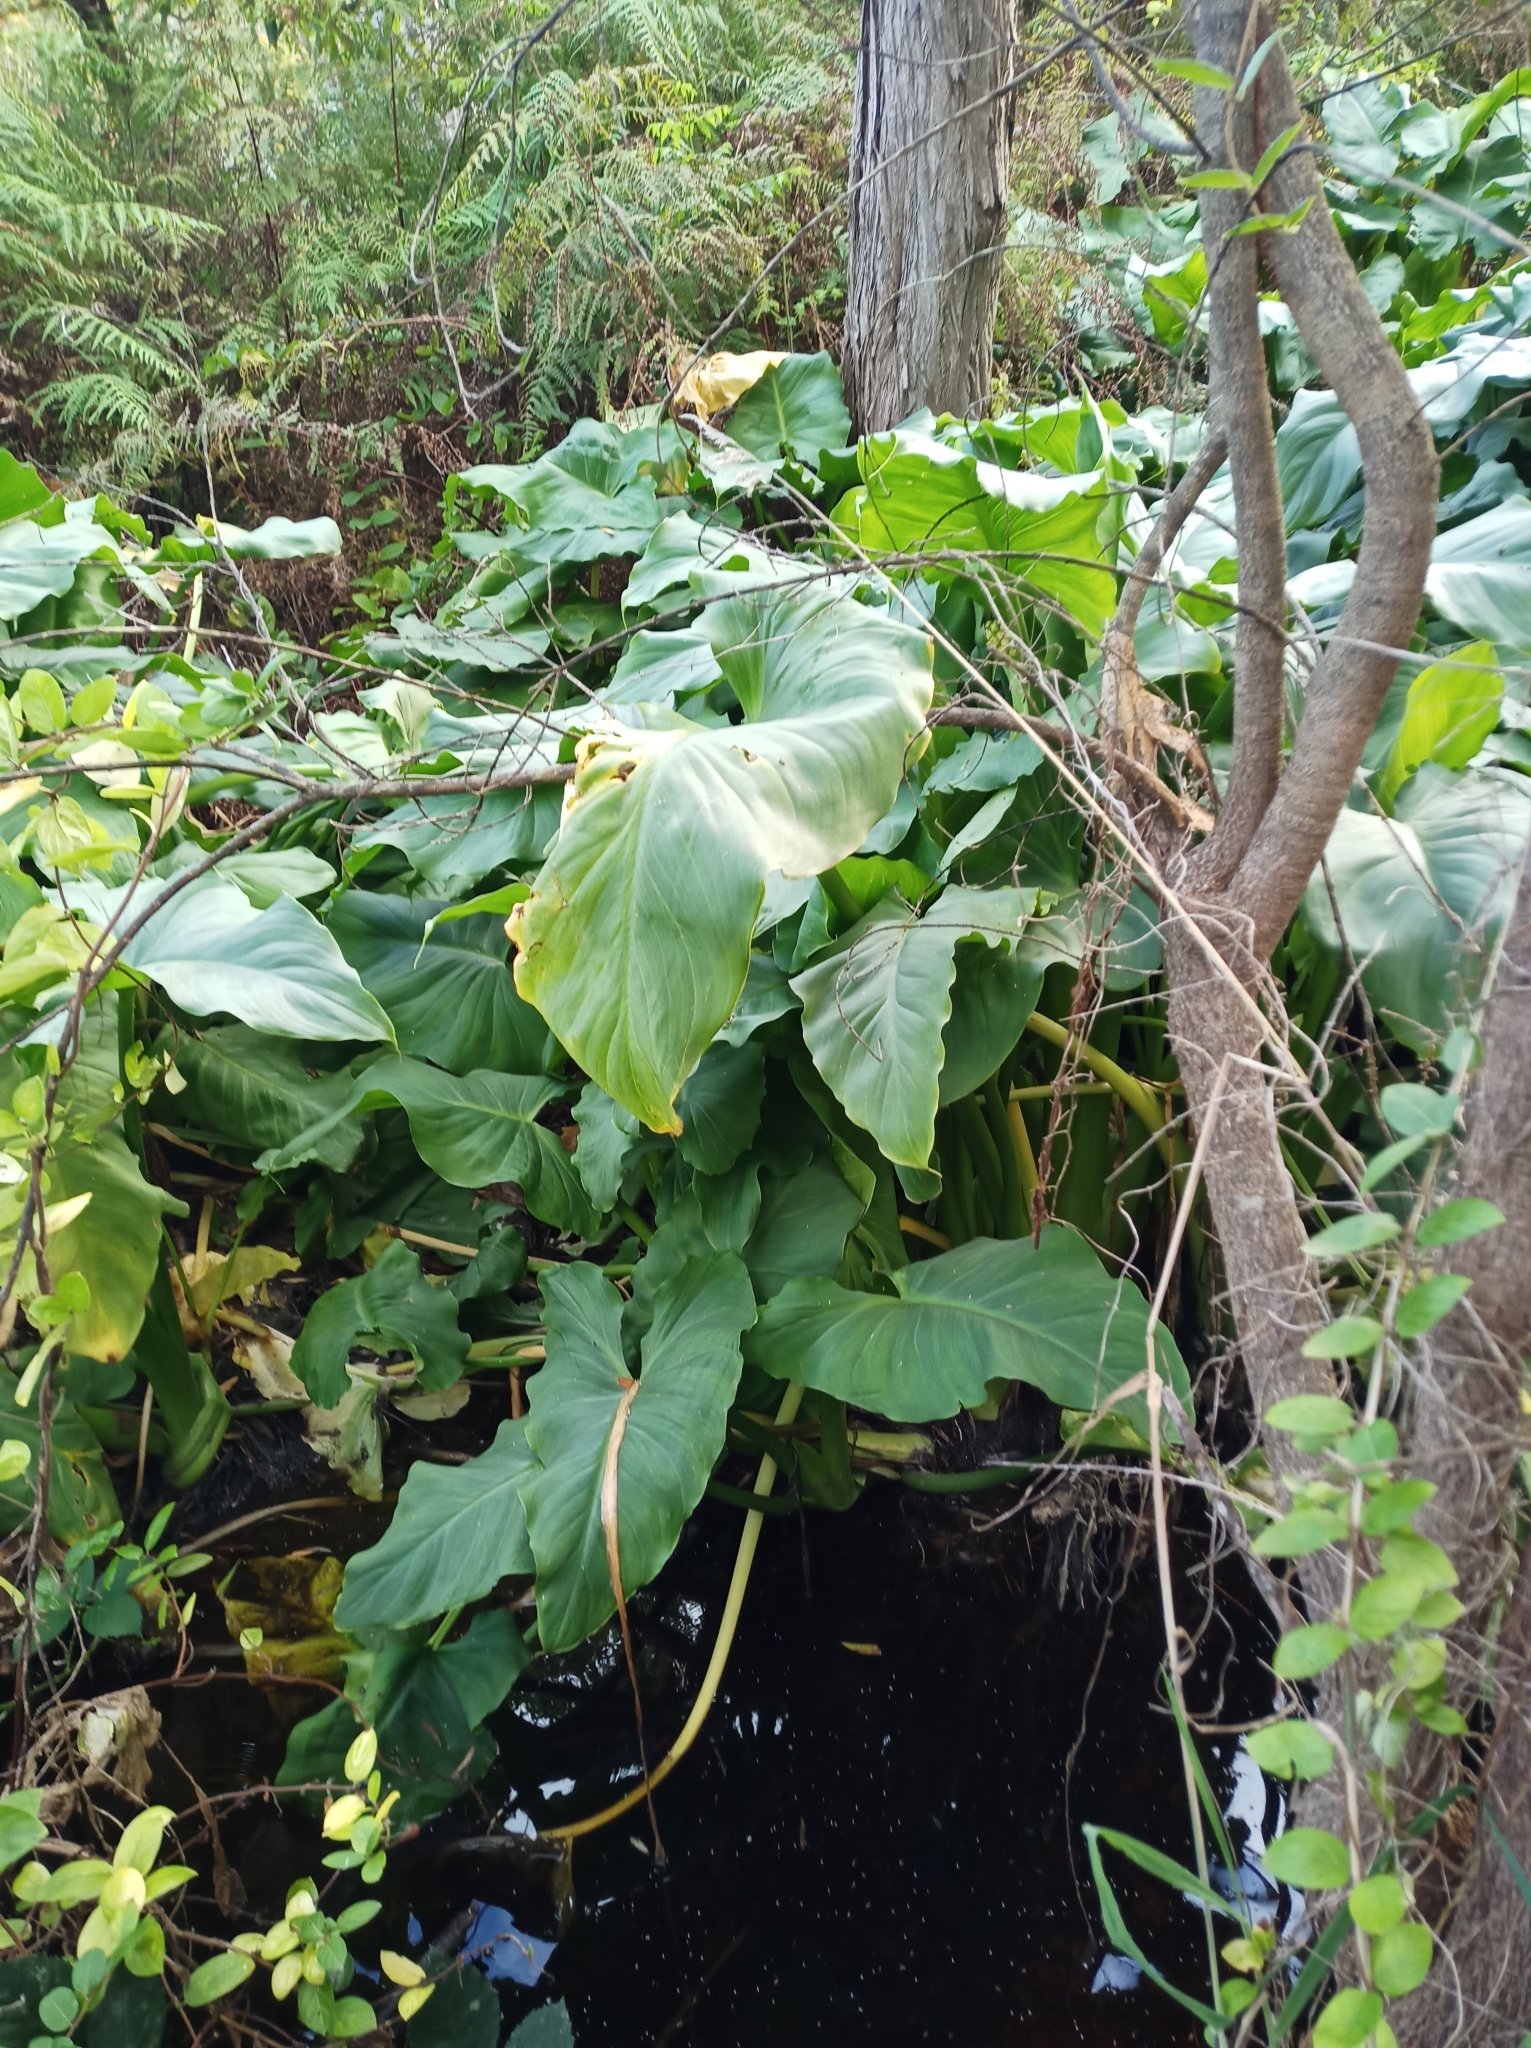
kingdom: Plantae
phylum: Tracheophyta
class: Liliopsida
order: Alismatales
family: Araceae
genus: Zantedeschia
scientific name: Zantedeschia aethiopica
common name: Altar-lily
